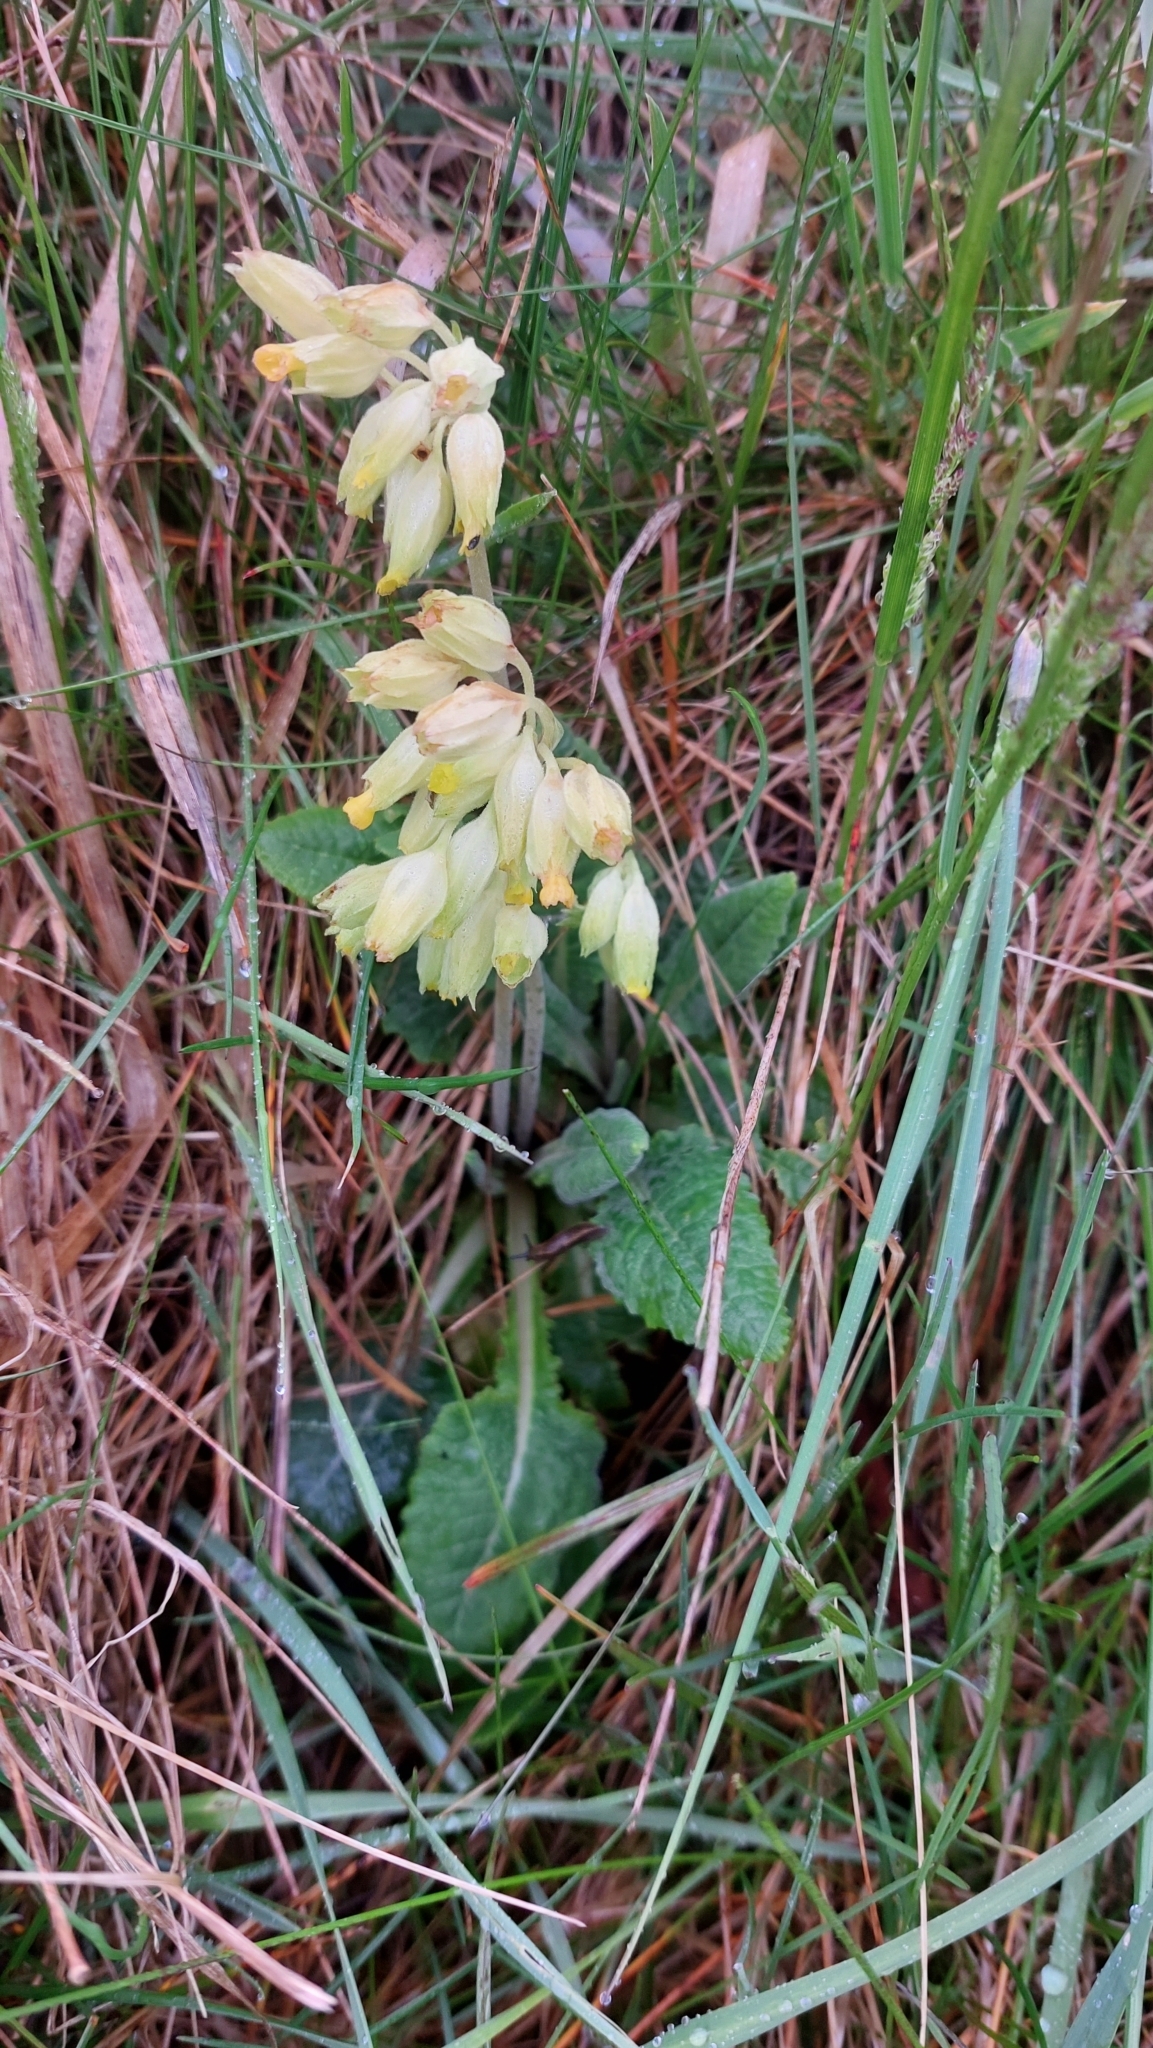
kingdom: Plantae
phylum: Tracheophyta
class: Magnoliopsida
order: Ericales
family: Primulaceae
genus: Primula
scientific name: Primula veris
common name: Cowslip
